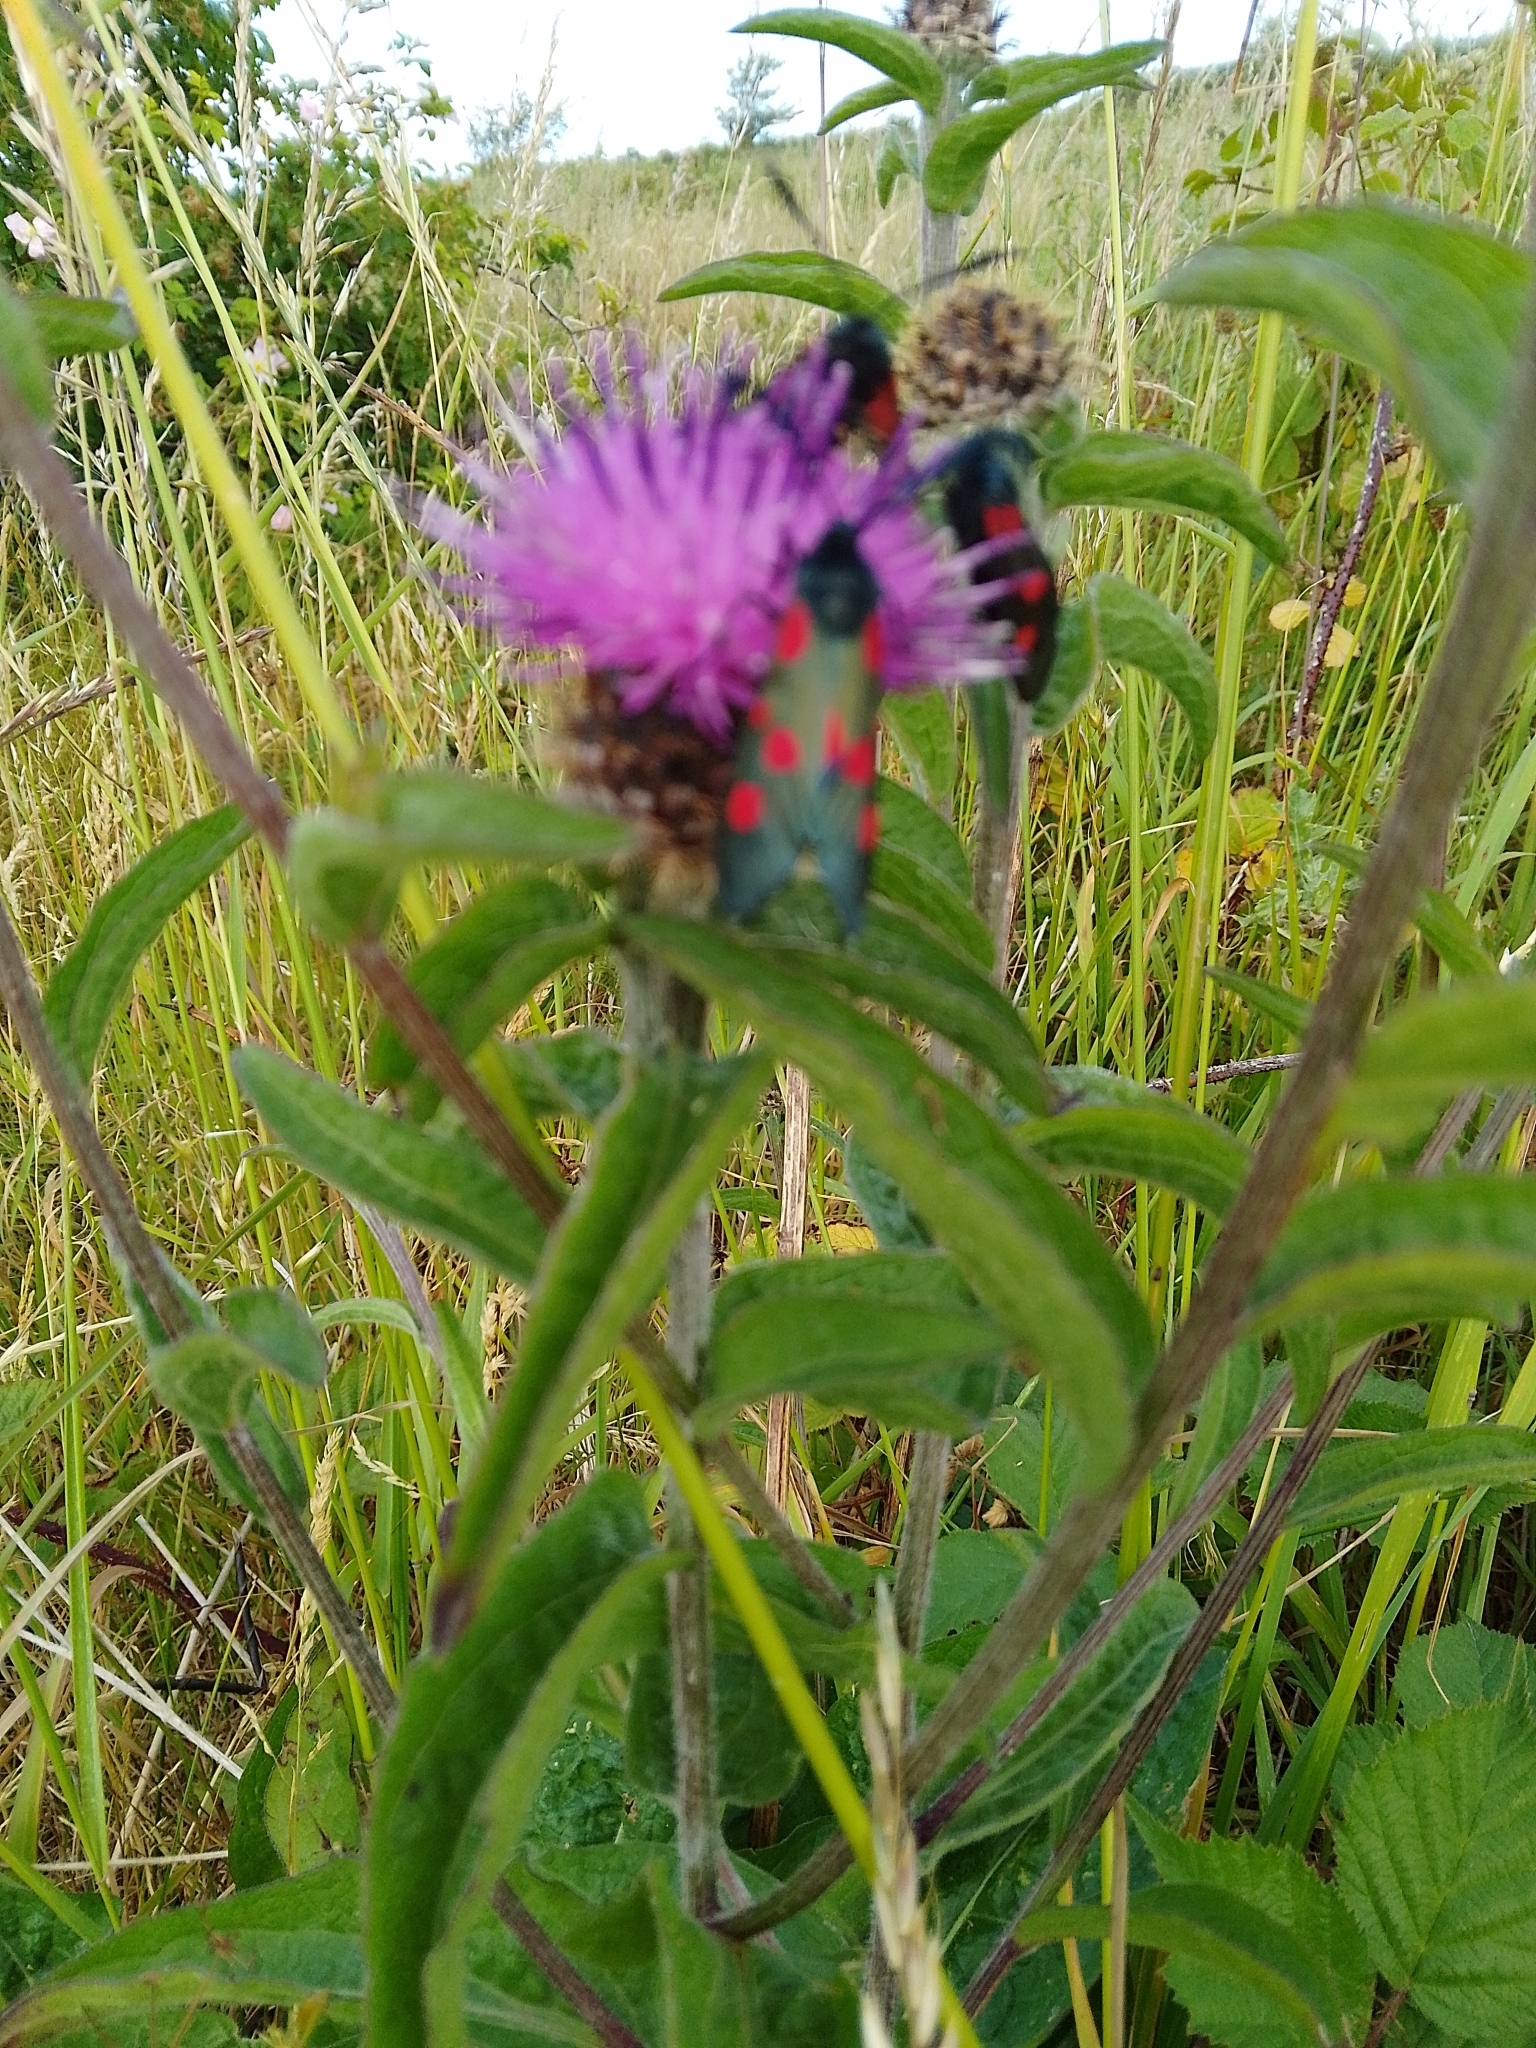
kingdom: Animalia
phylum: Arthropoda
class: Insecta
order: Lepidoptera
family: Zygaenidae
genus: Zygaena
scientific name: Zygaena lonicerae
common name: Narrow-bordered five-spot burnet
